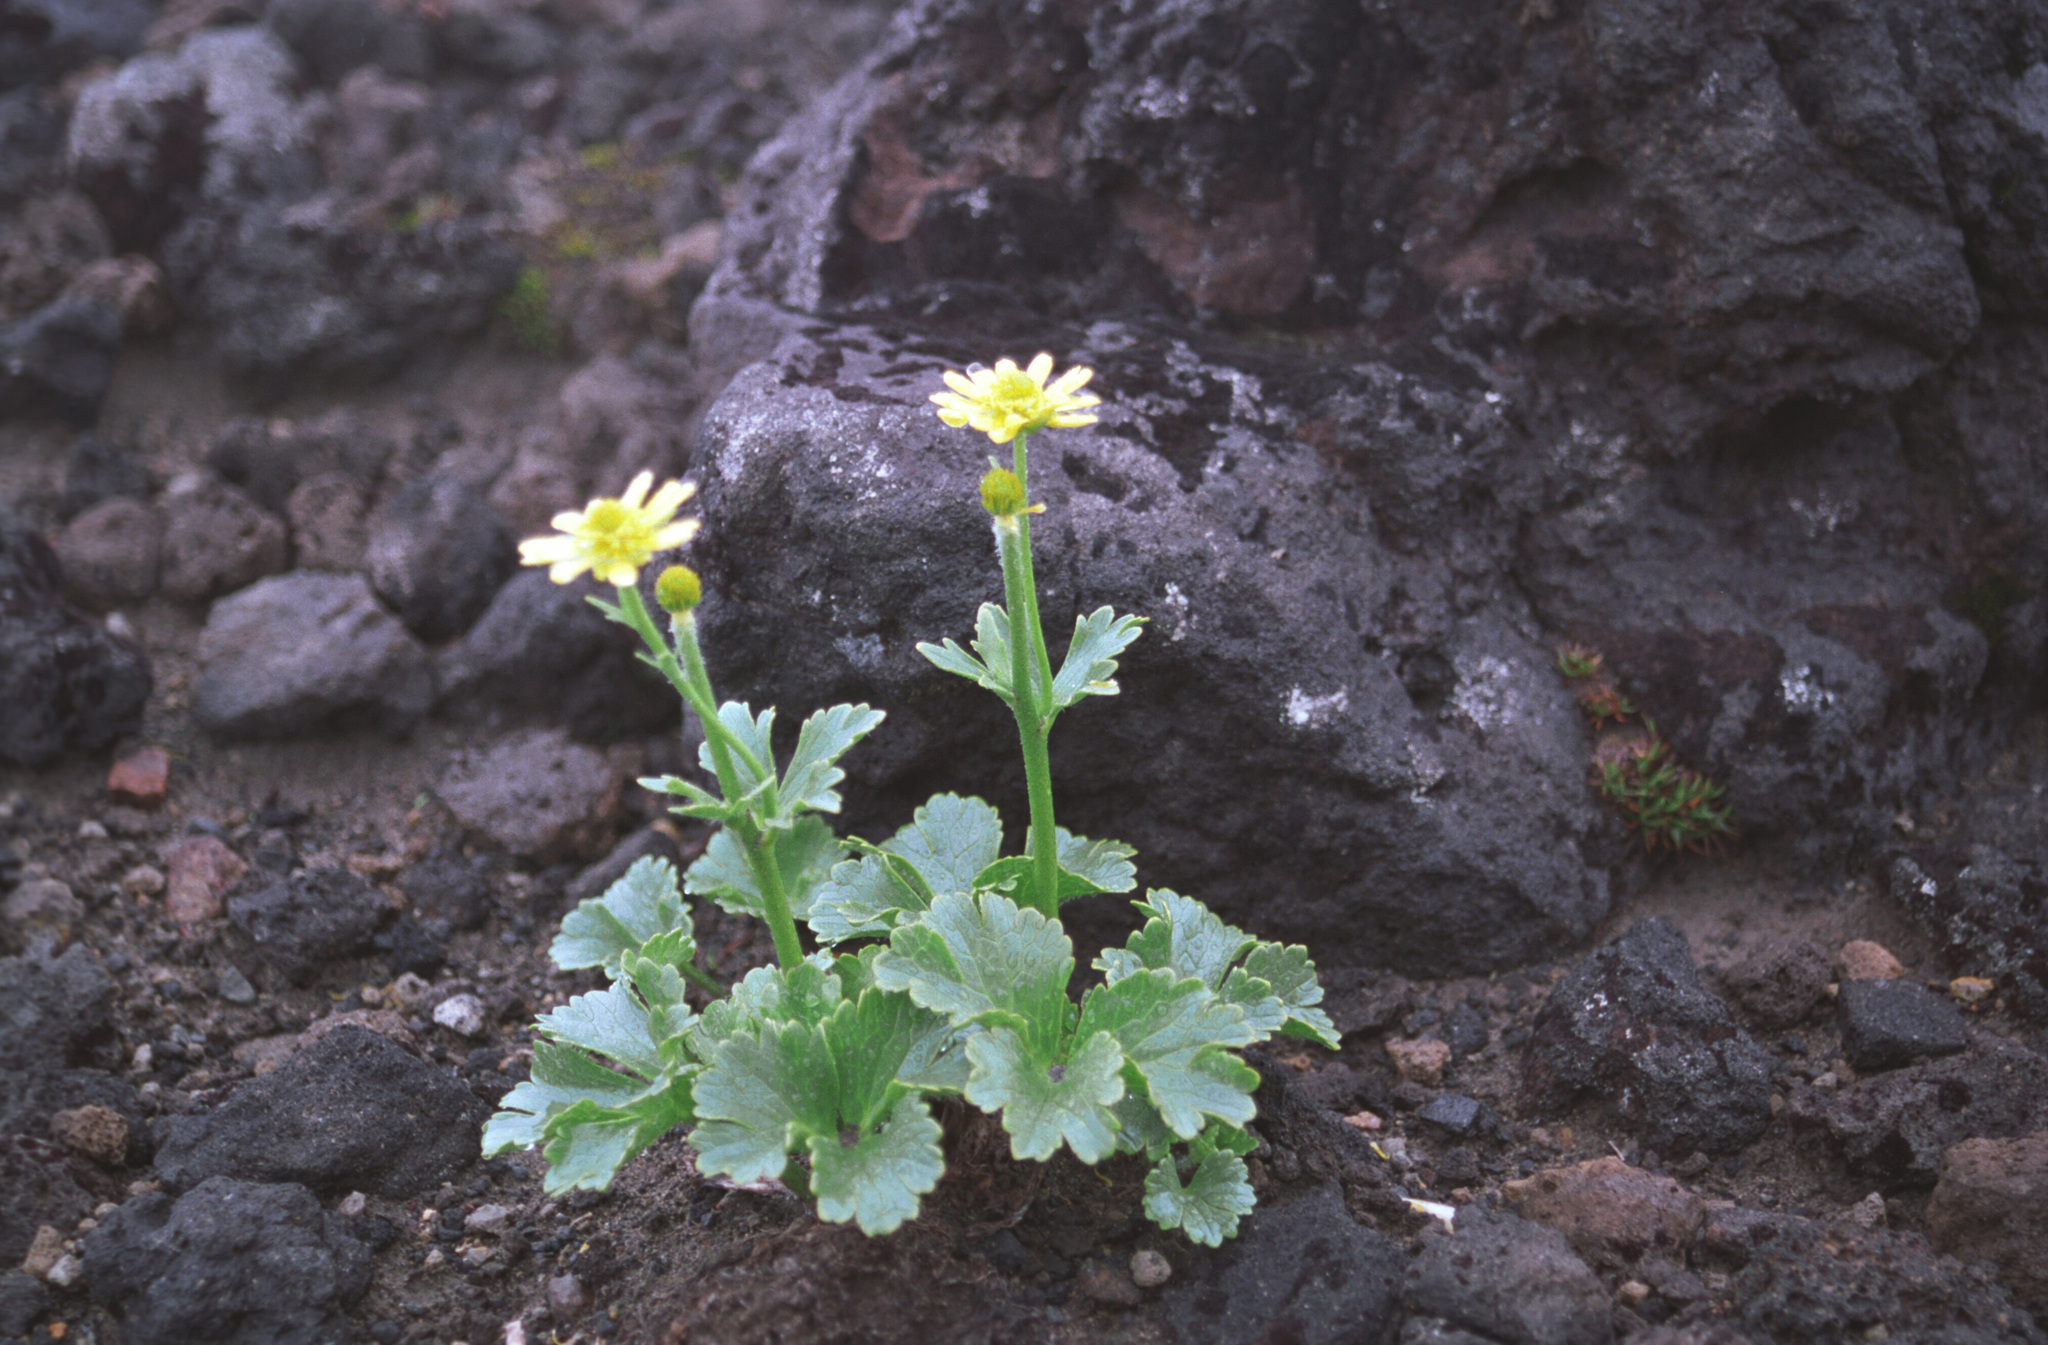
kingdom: Plantae
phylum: Tracheophyta
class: Magnoliopsida
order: Ranunculales
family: Ranunculaceae
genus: Ranunculus
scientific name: Ranunculus nivicola
